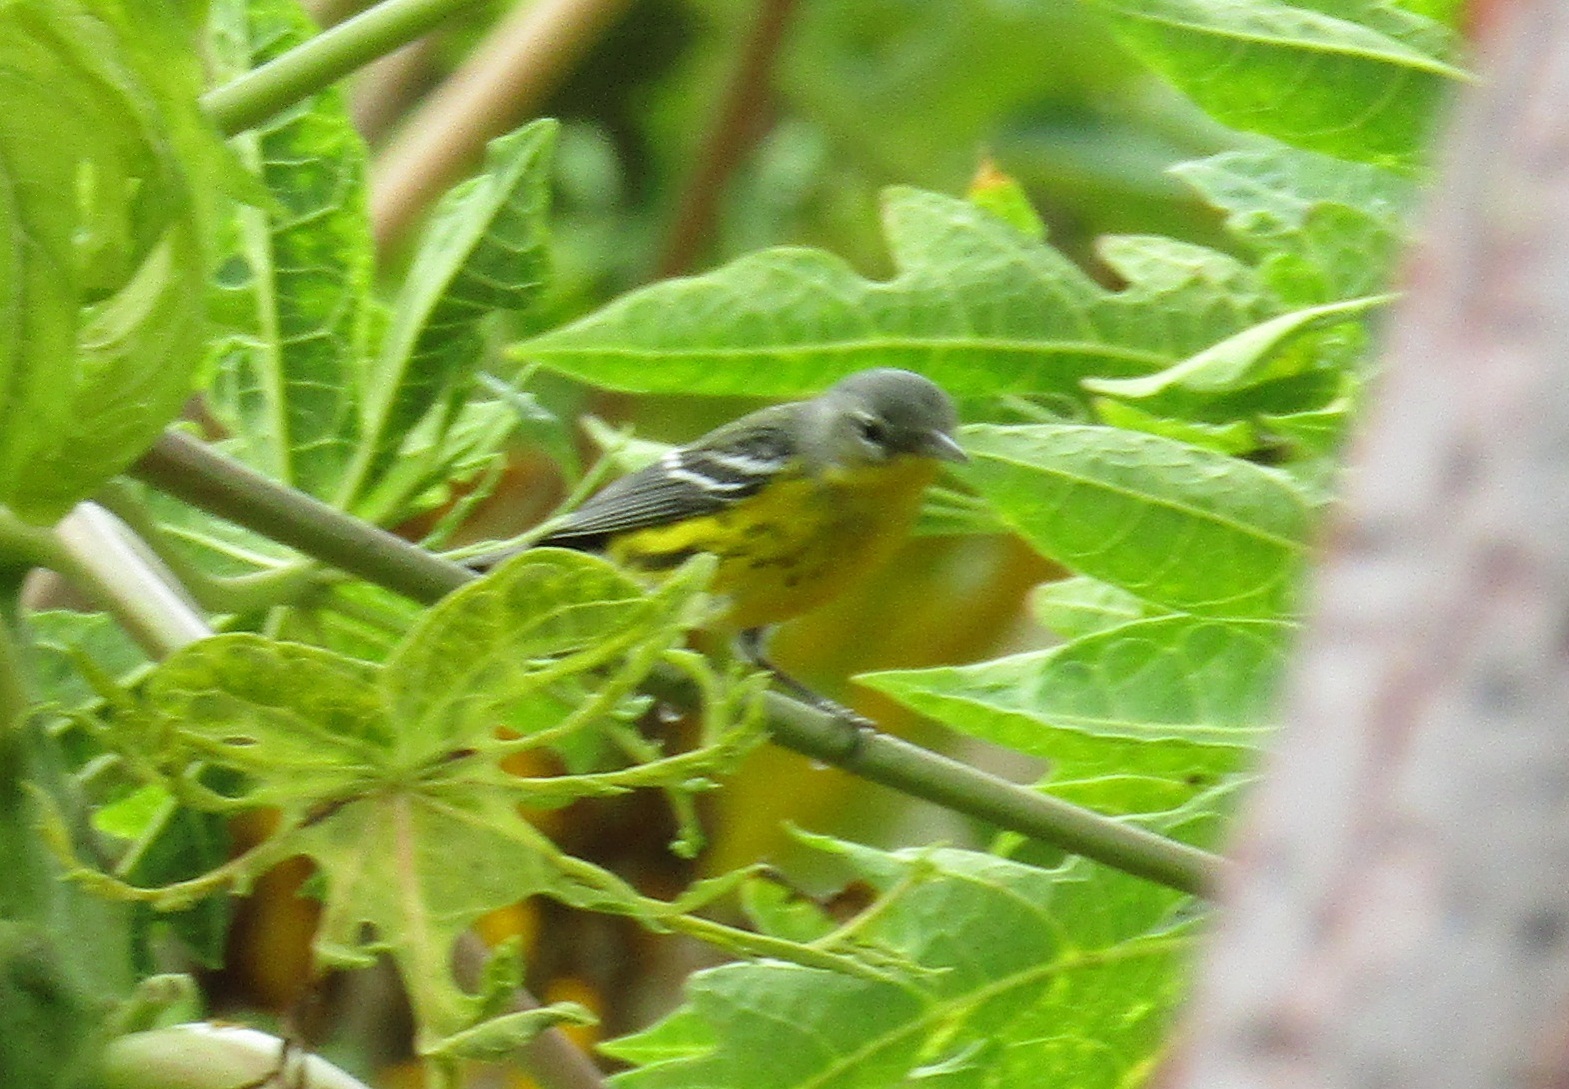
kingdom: Animalia
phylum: Chordata
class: Aves
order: Passeriformes
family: Parulidae
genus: Setophaga
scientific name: Setophaga magnolia
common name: Magnolia warbler
